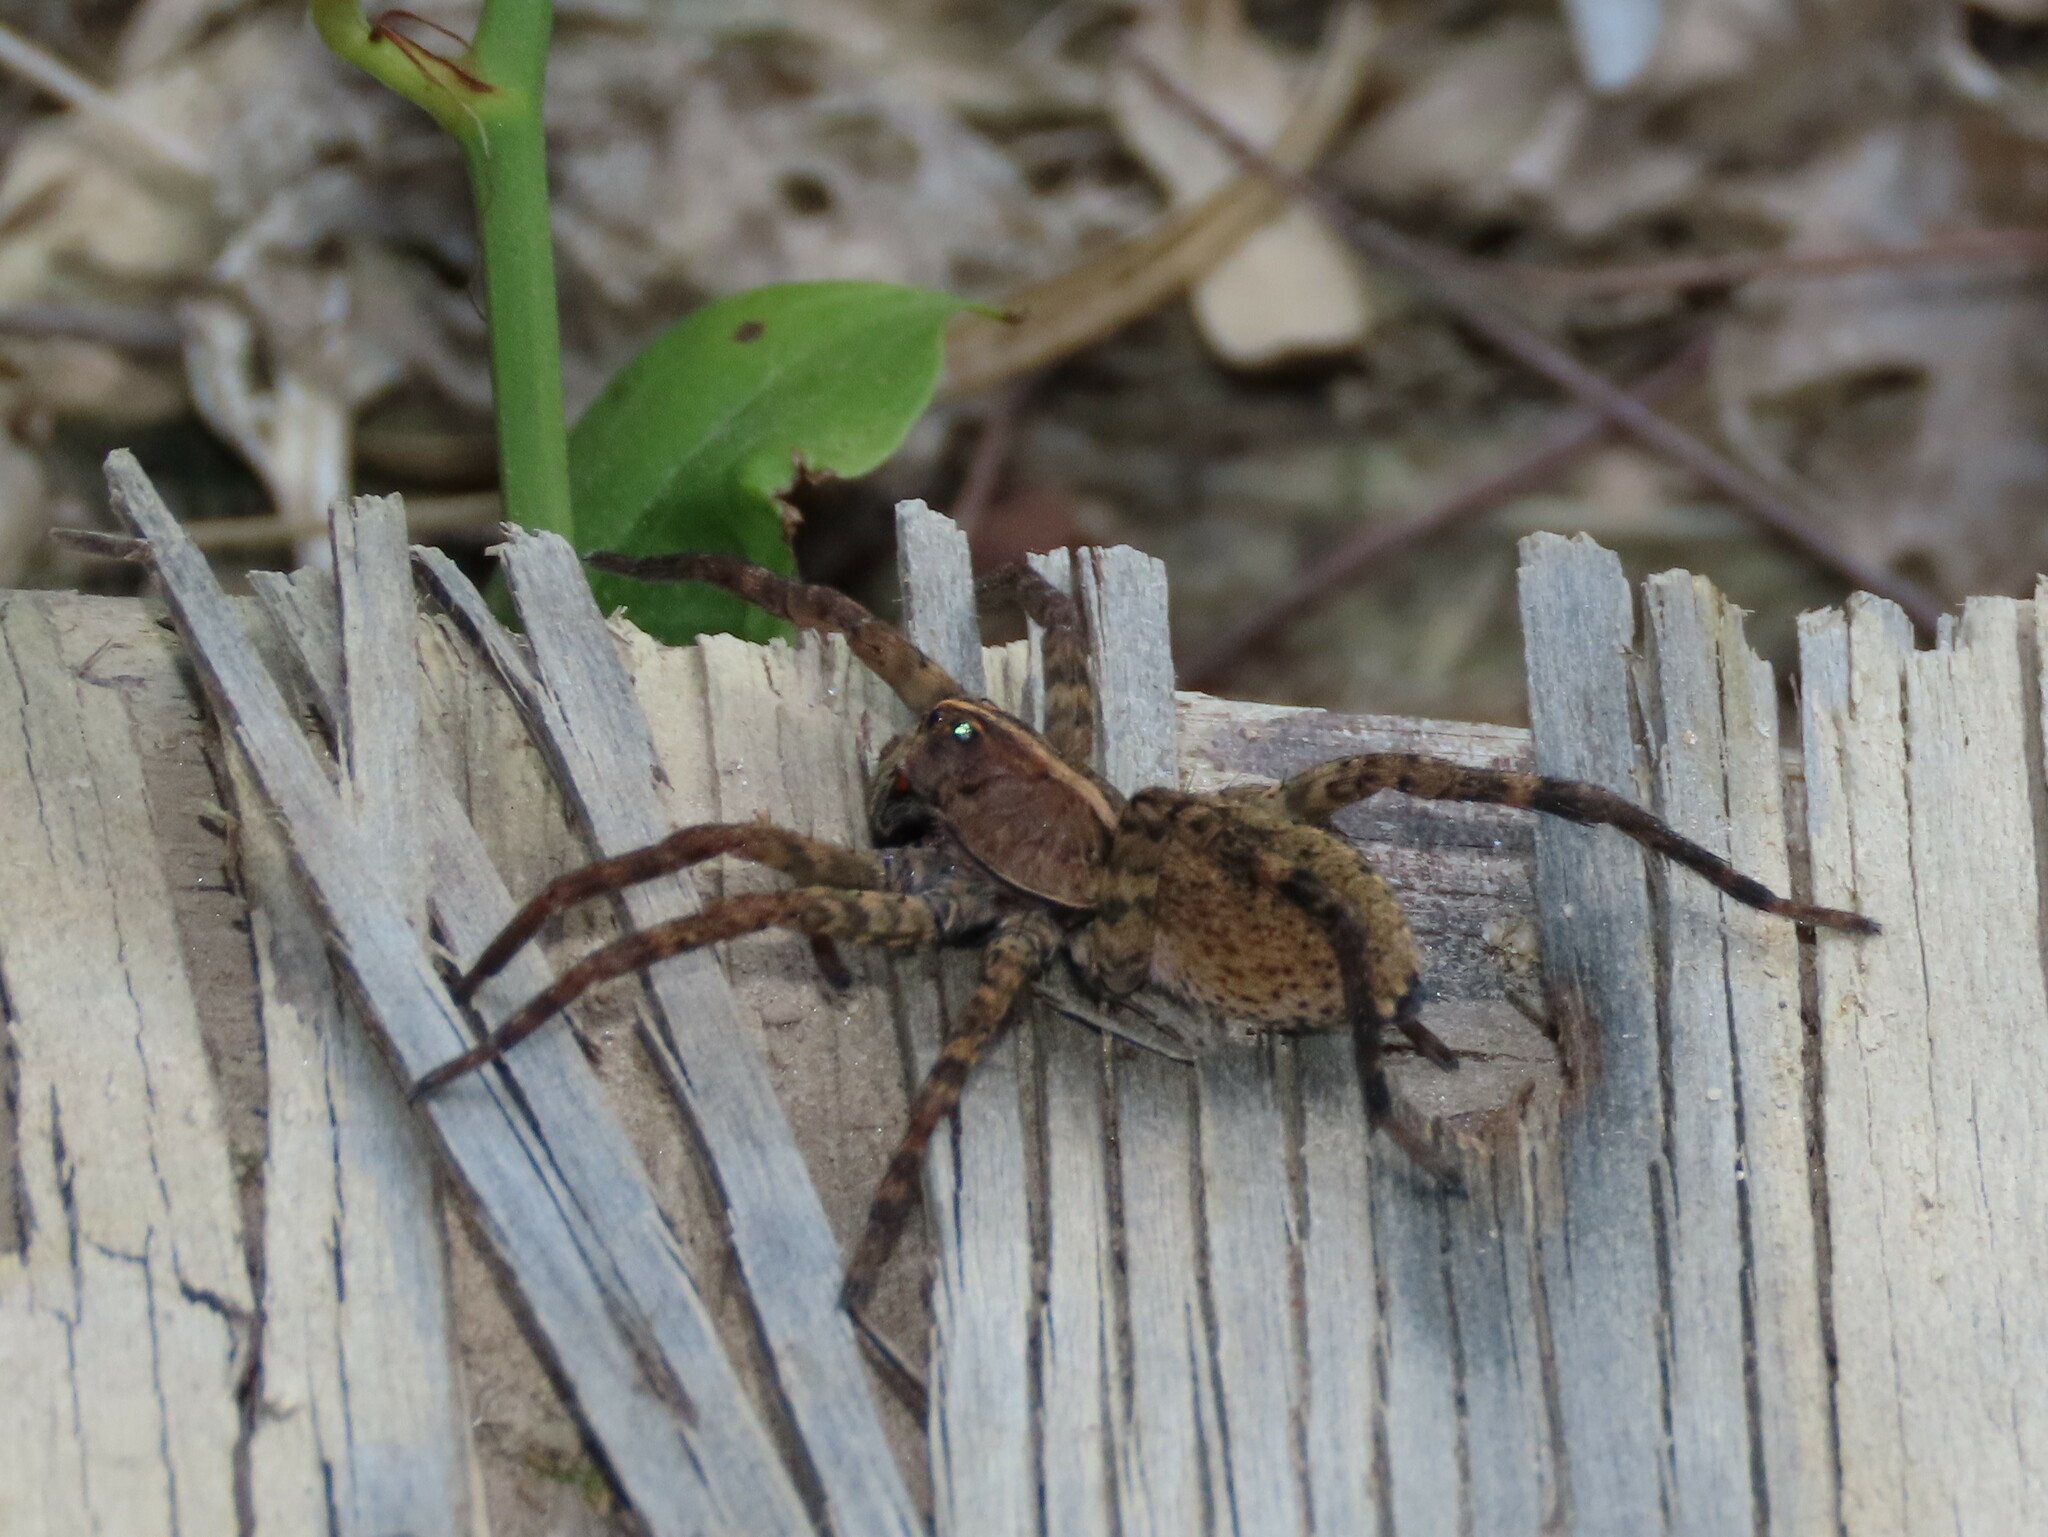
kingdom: Animalia
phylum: Arthropoda
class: Arachnida
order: Araneae
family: Lycosidae
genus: Tigrosa
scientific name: Tigrosa georgicola
